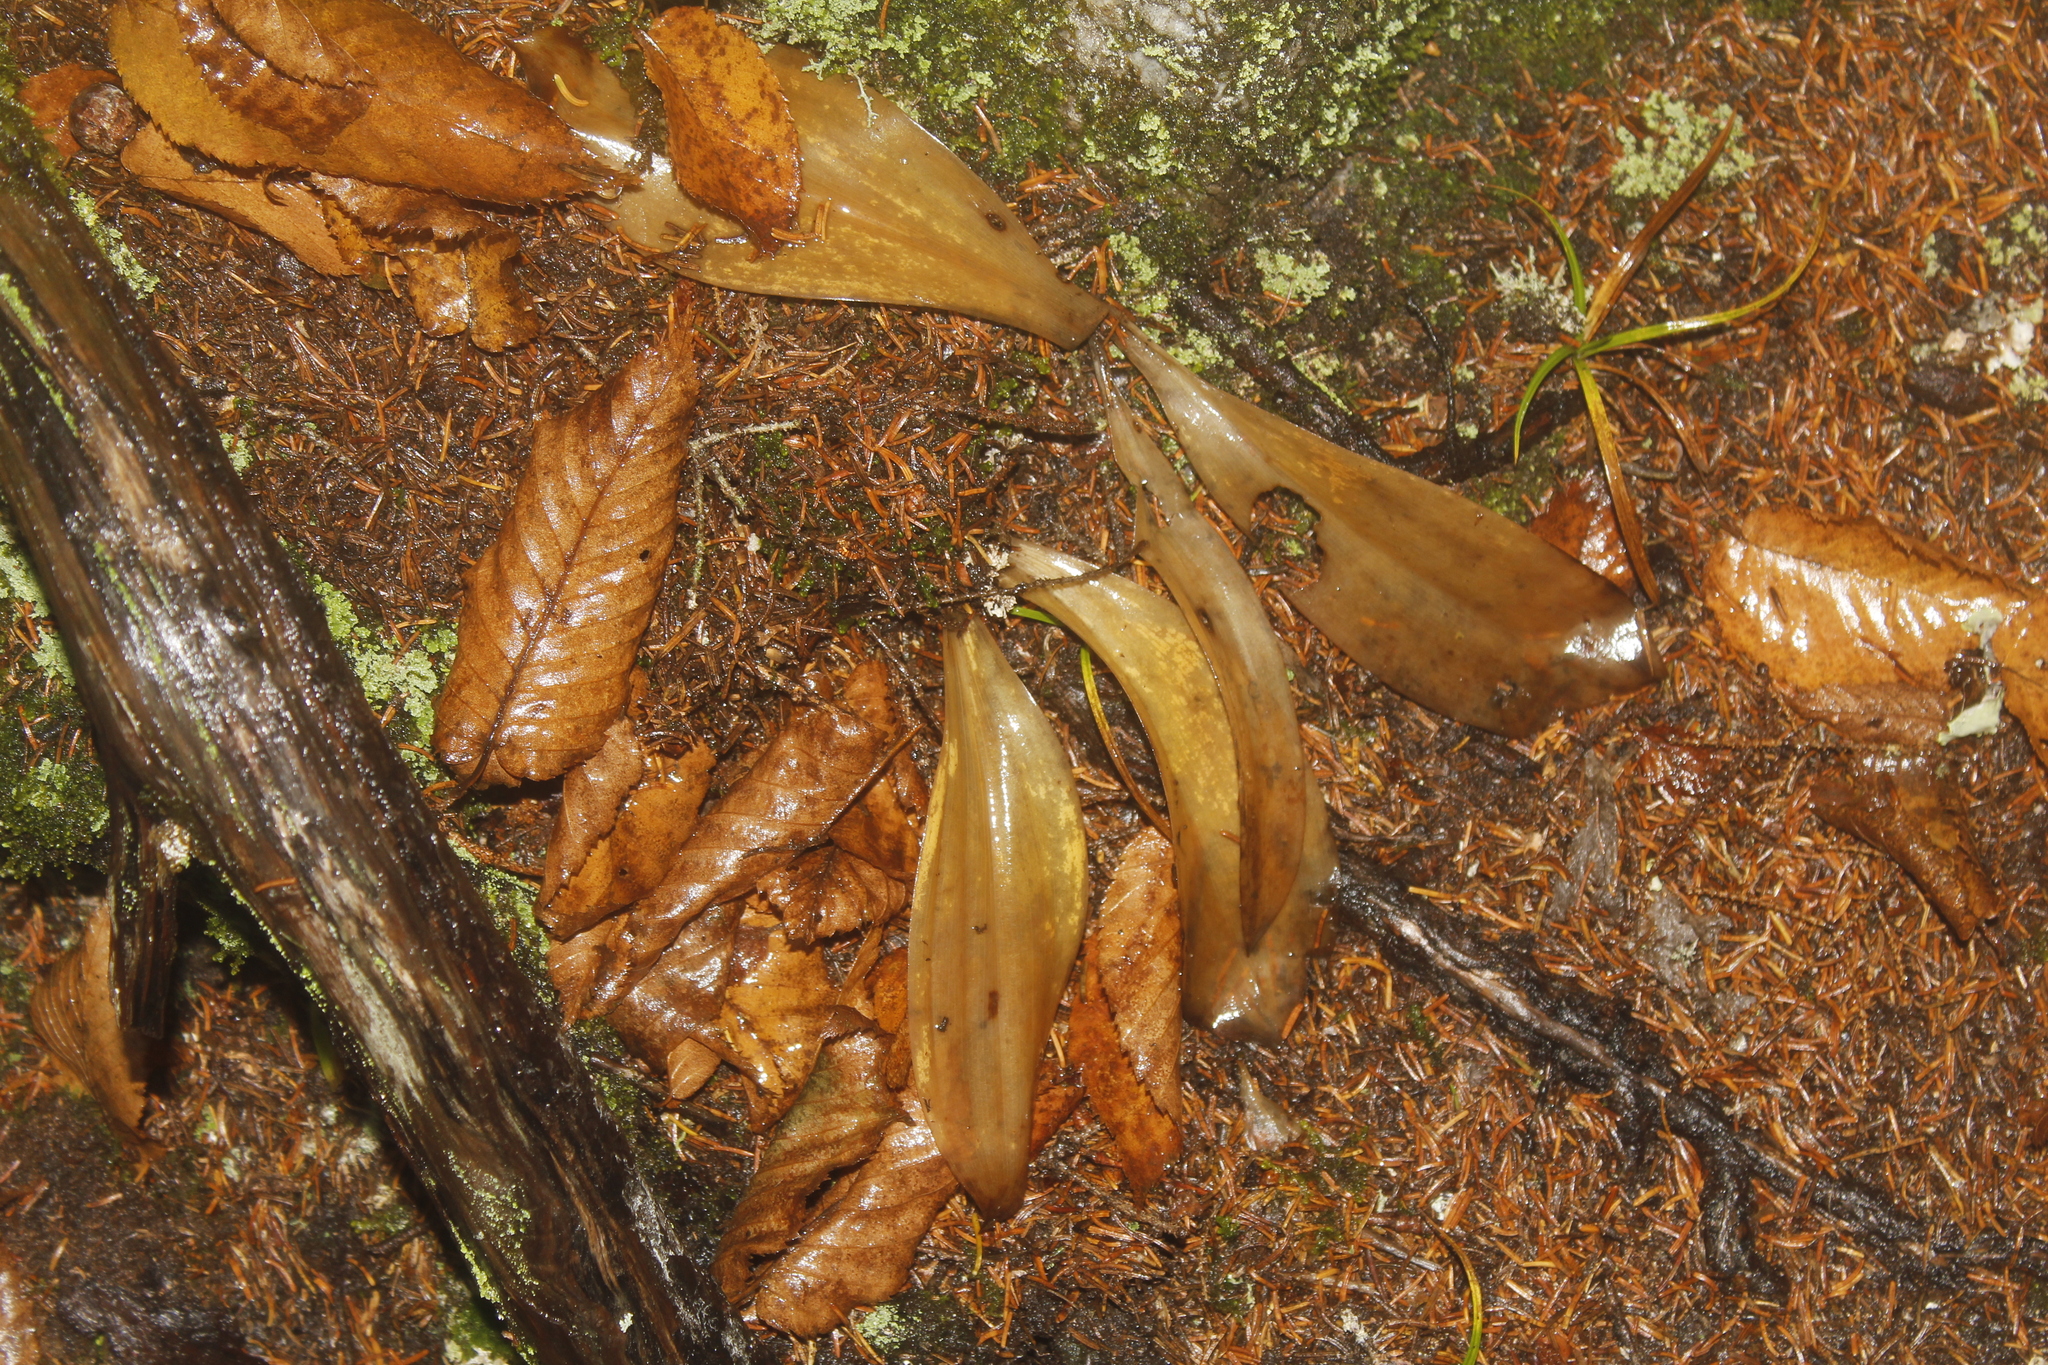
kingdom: Plantae
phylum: Tracheophyta
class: Liliopsida
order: Liliales
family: Liliaceae
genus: Clintonia
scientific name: Clintonia borealis
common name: Yellow clintonia
